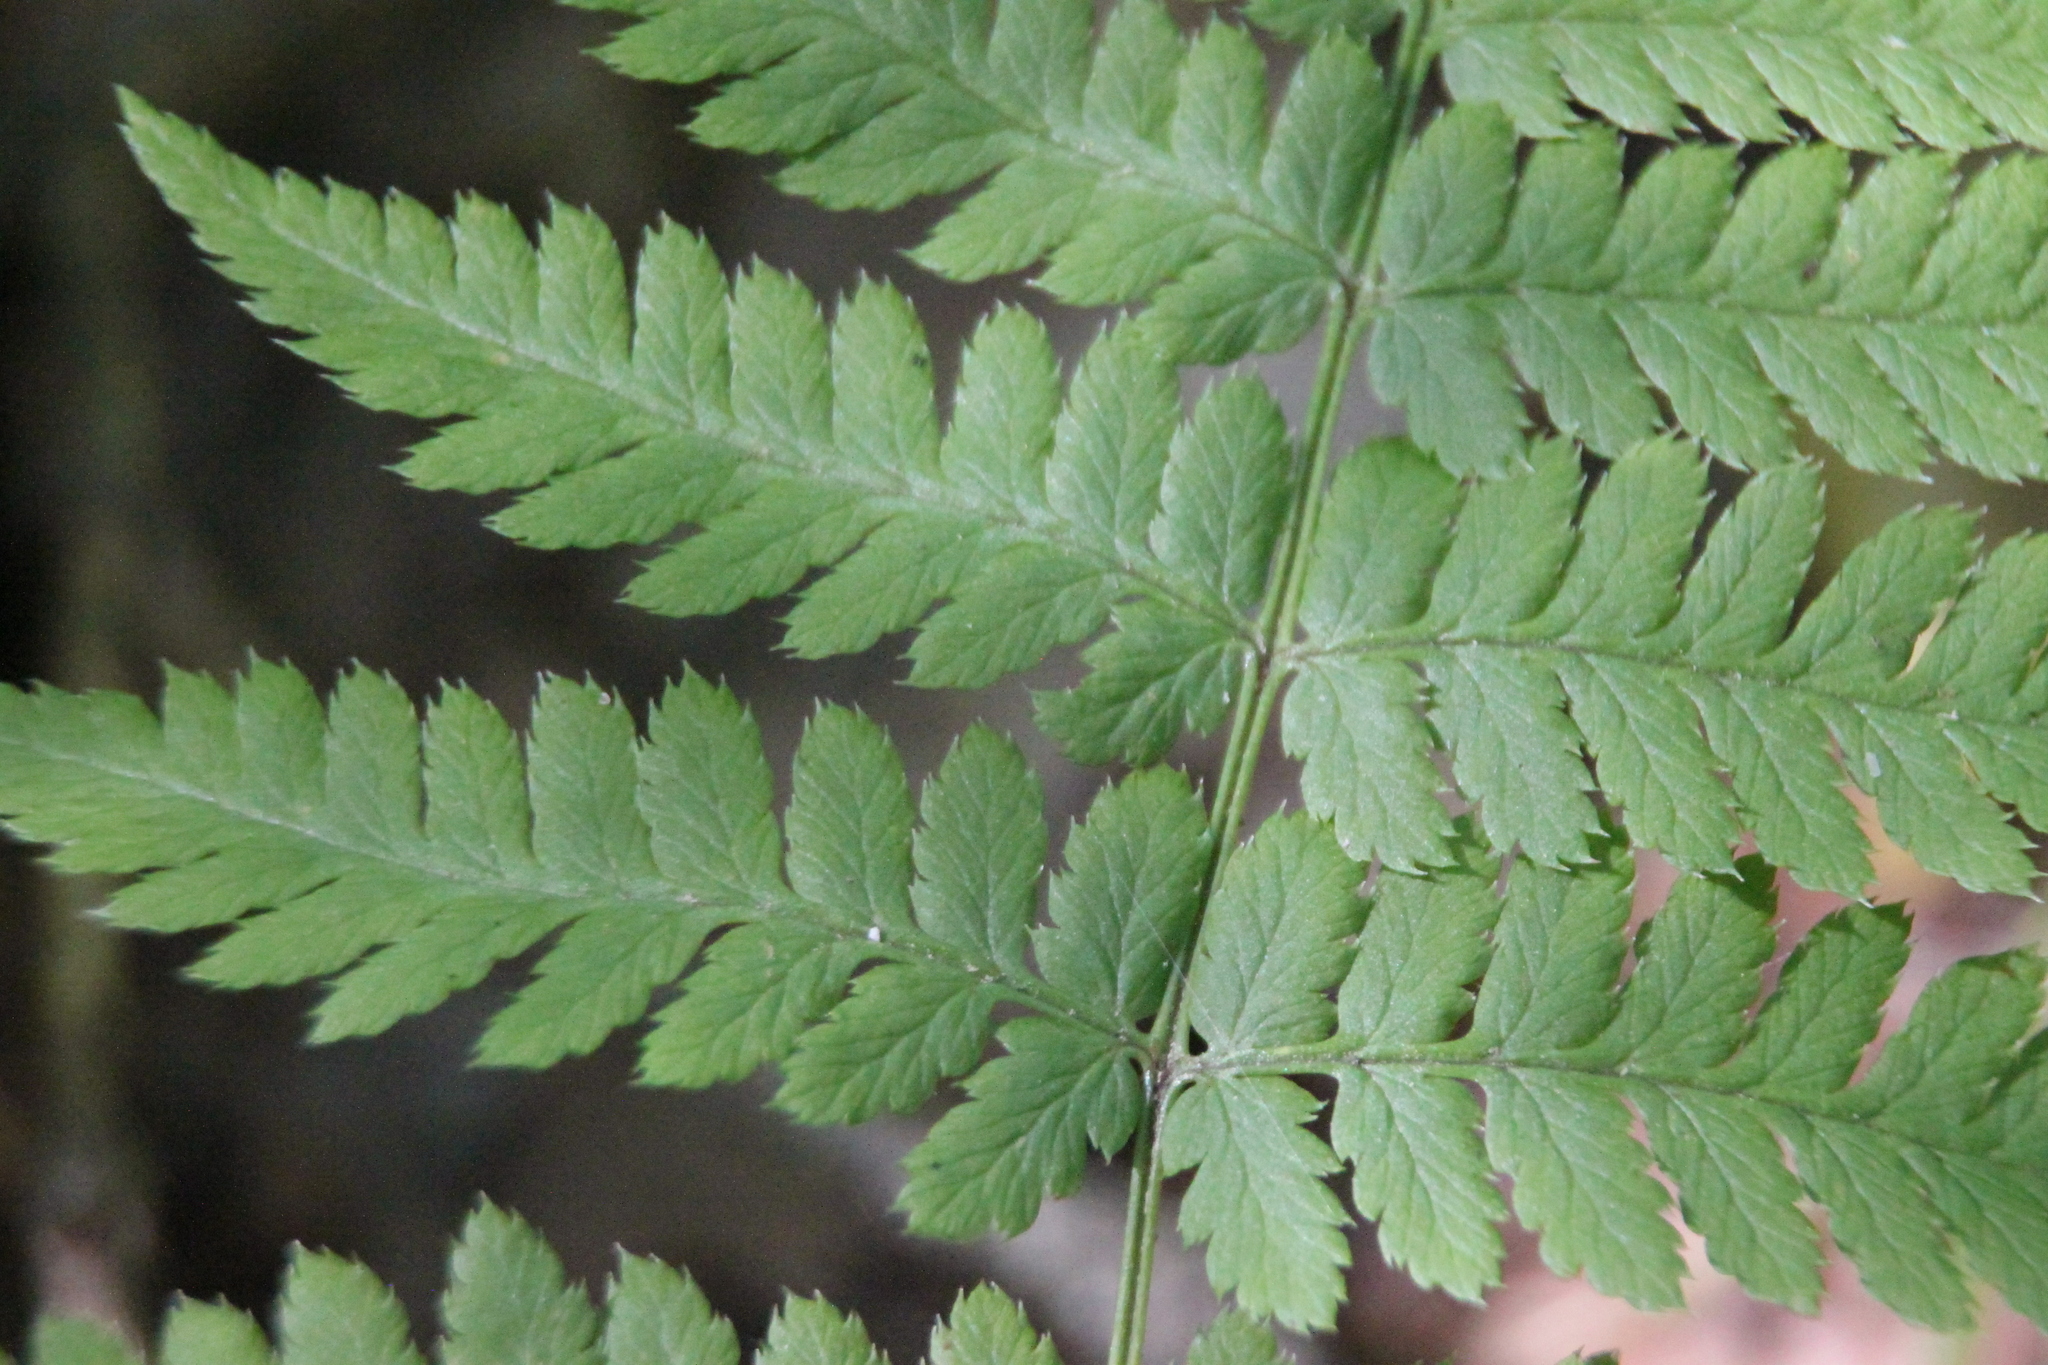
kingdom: Plantae
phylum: Tracheophyta
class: Polypodiopsida
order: Polypodiales
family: Dryopteridaceae
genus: Dryopteris
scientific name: Dryopteris carthusiana
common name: Narrow buckler-fern
